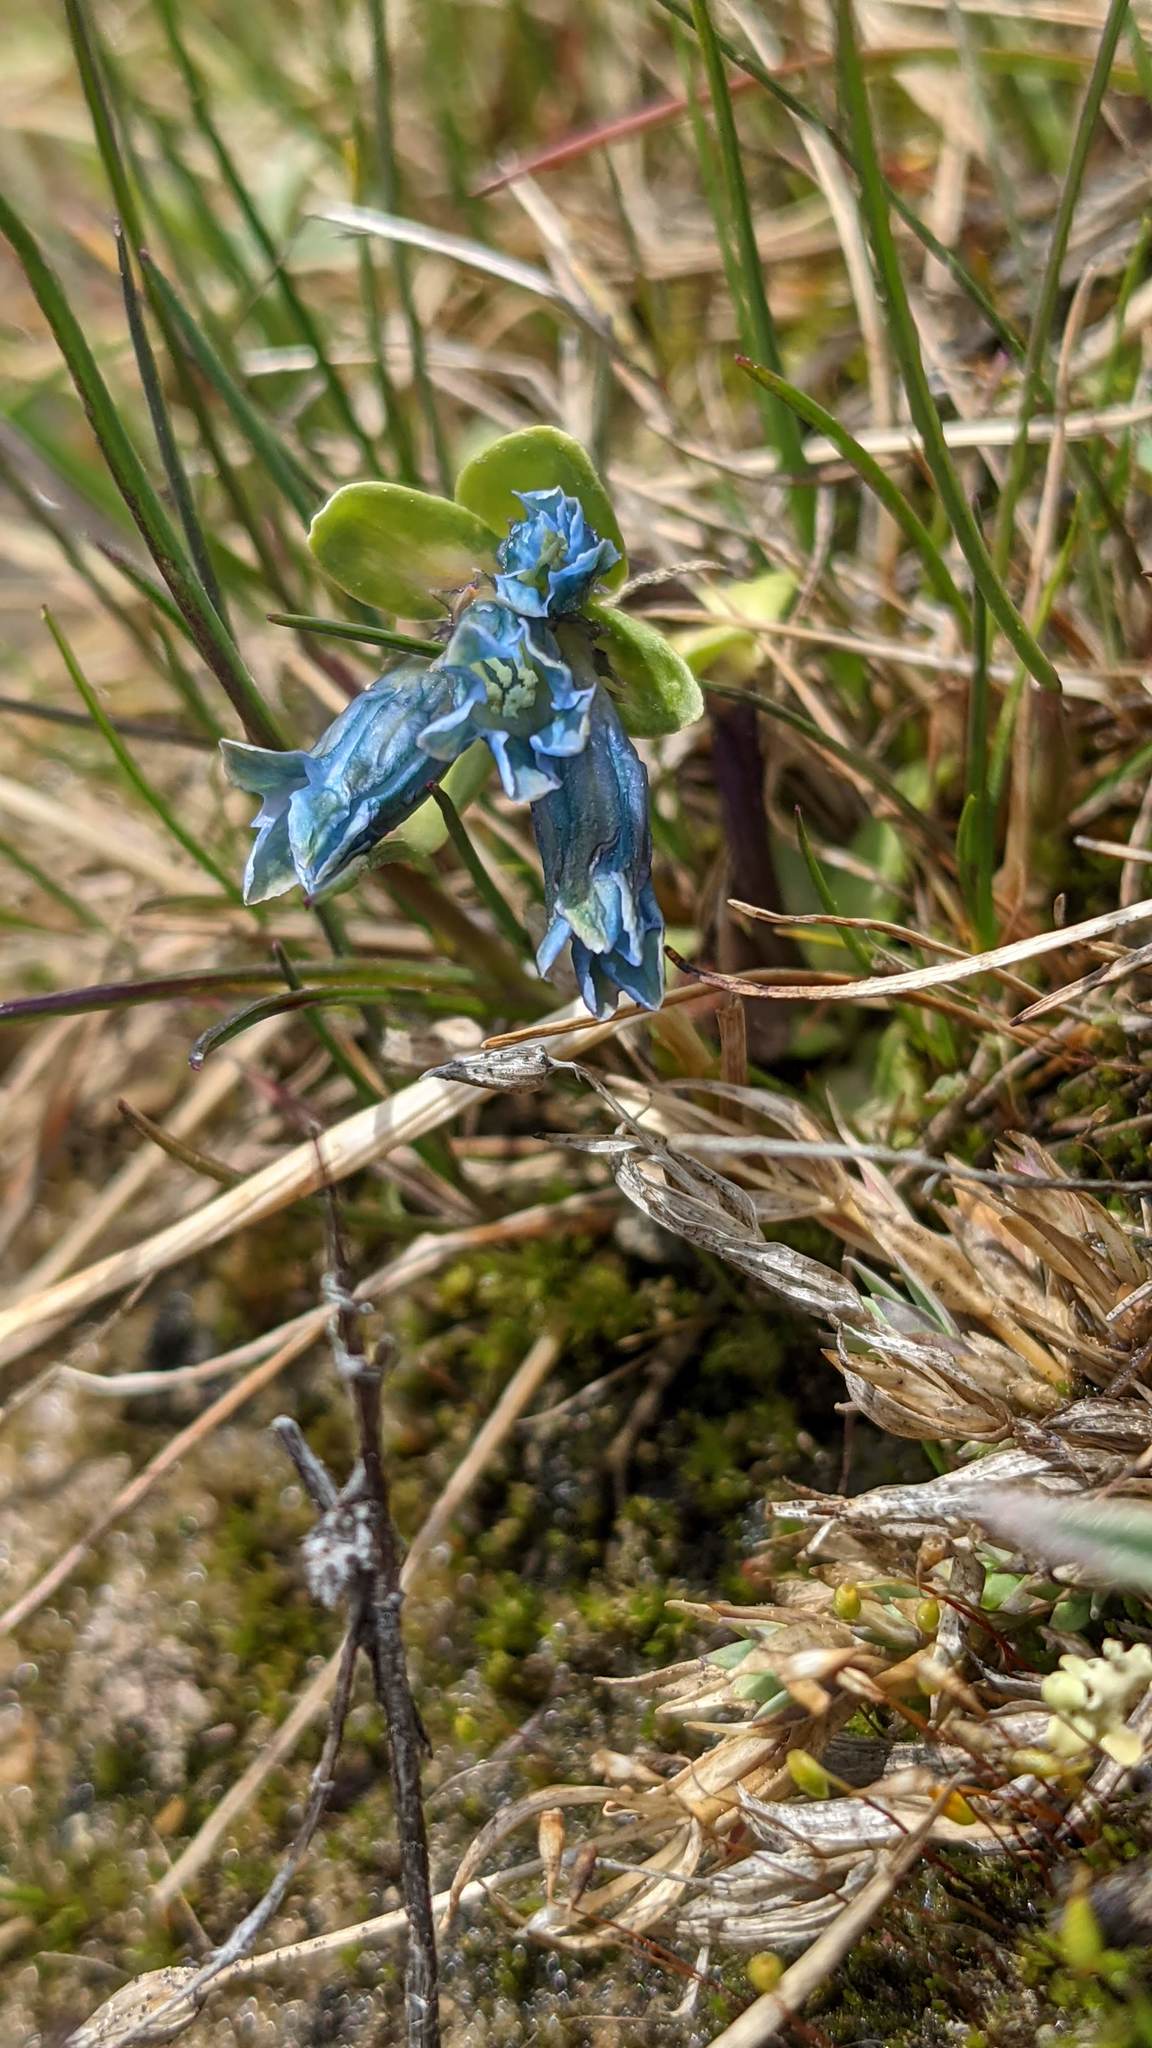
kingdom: Plantae
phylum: Tracheophyta
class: Magnoliopsida
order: Gentianales
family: Gentianaceae
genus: Gentiana
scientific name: Gentiana glauca
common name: Alpine gentian
